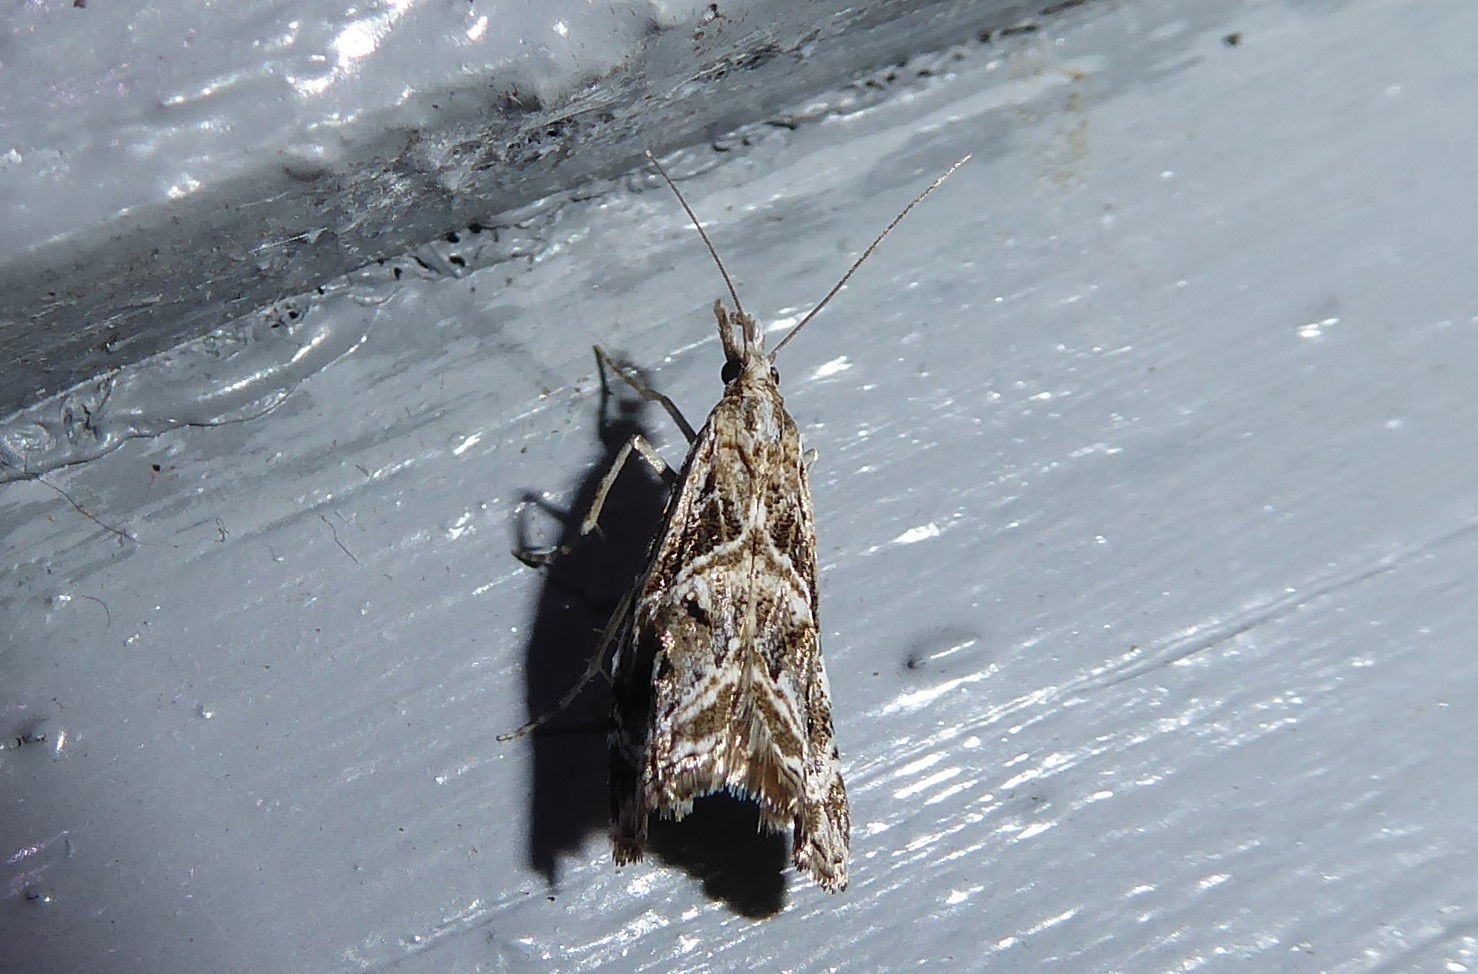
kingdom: Animalia
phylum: Arthropoda
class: Insecta
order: Lepidoptera
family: Crambidae
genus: Gadira
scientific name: Gadira acerella
